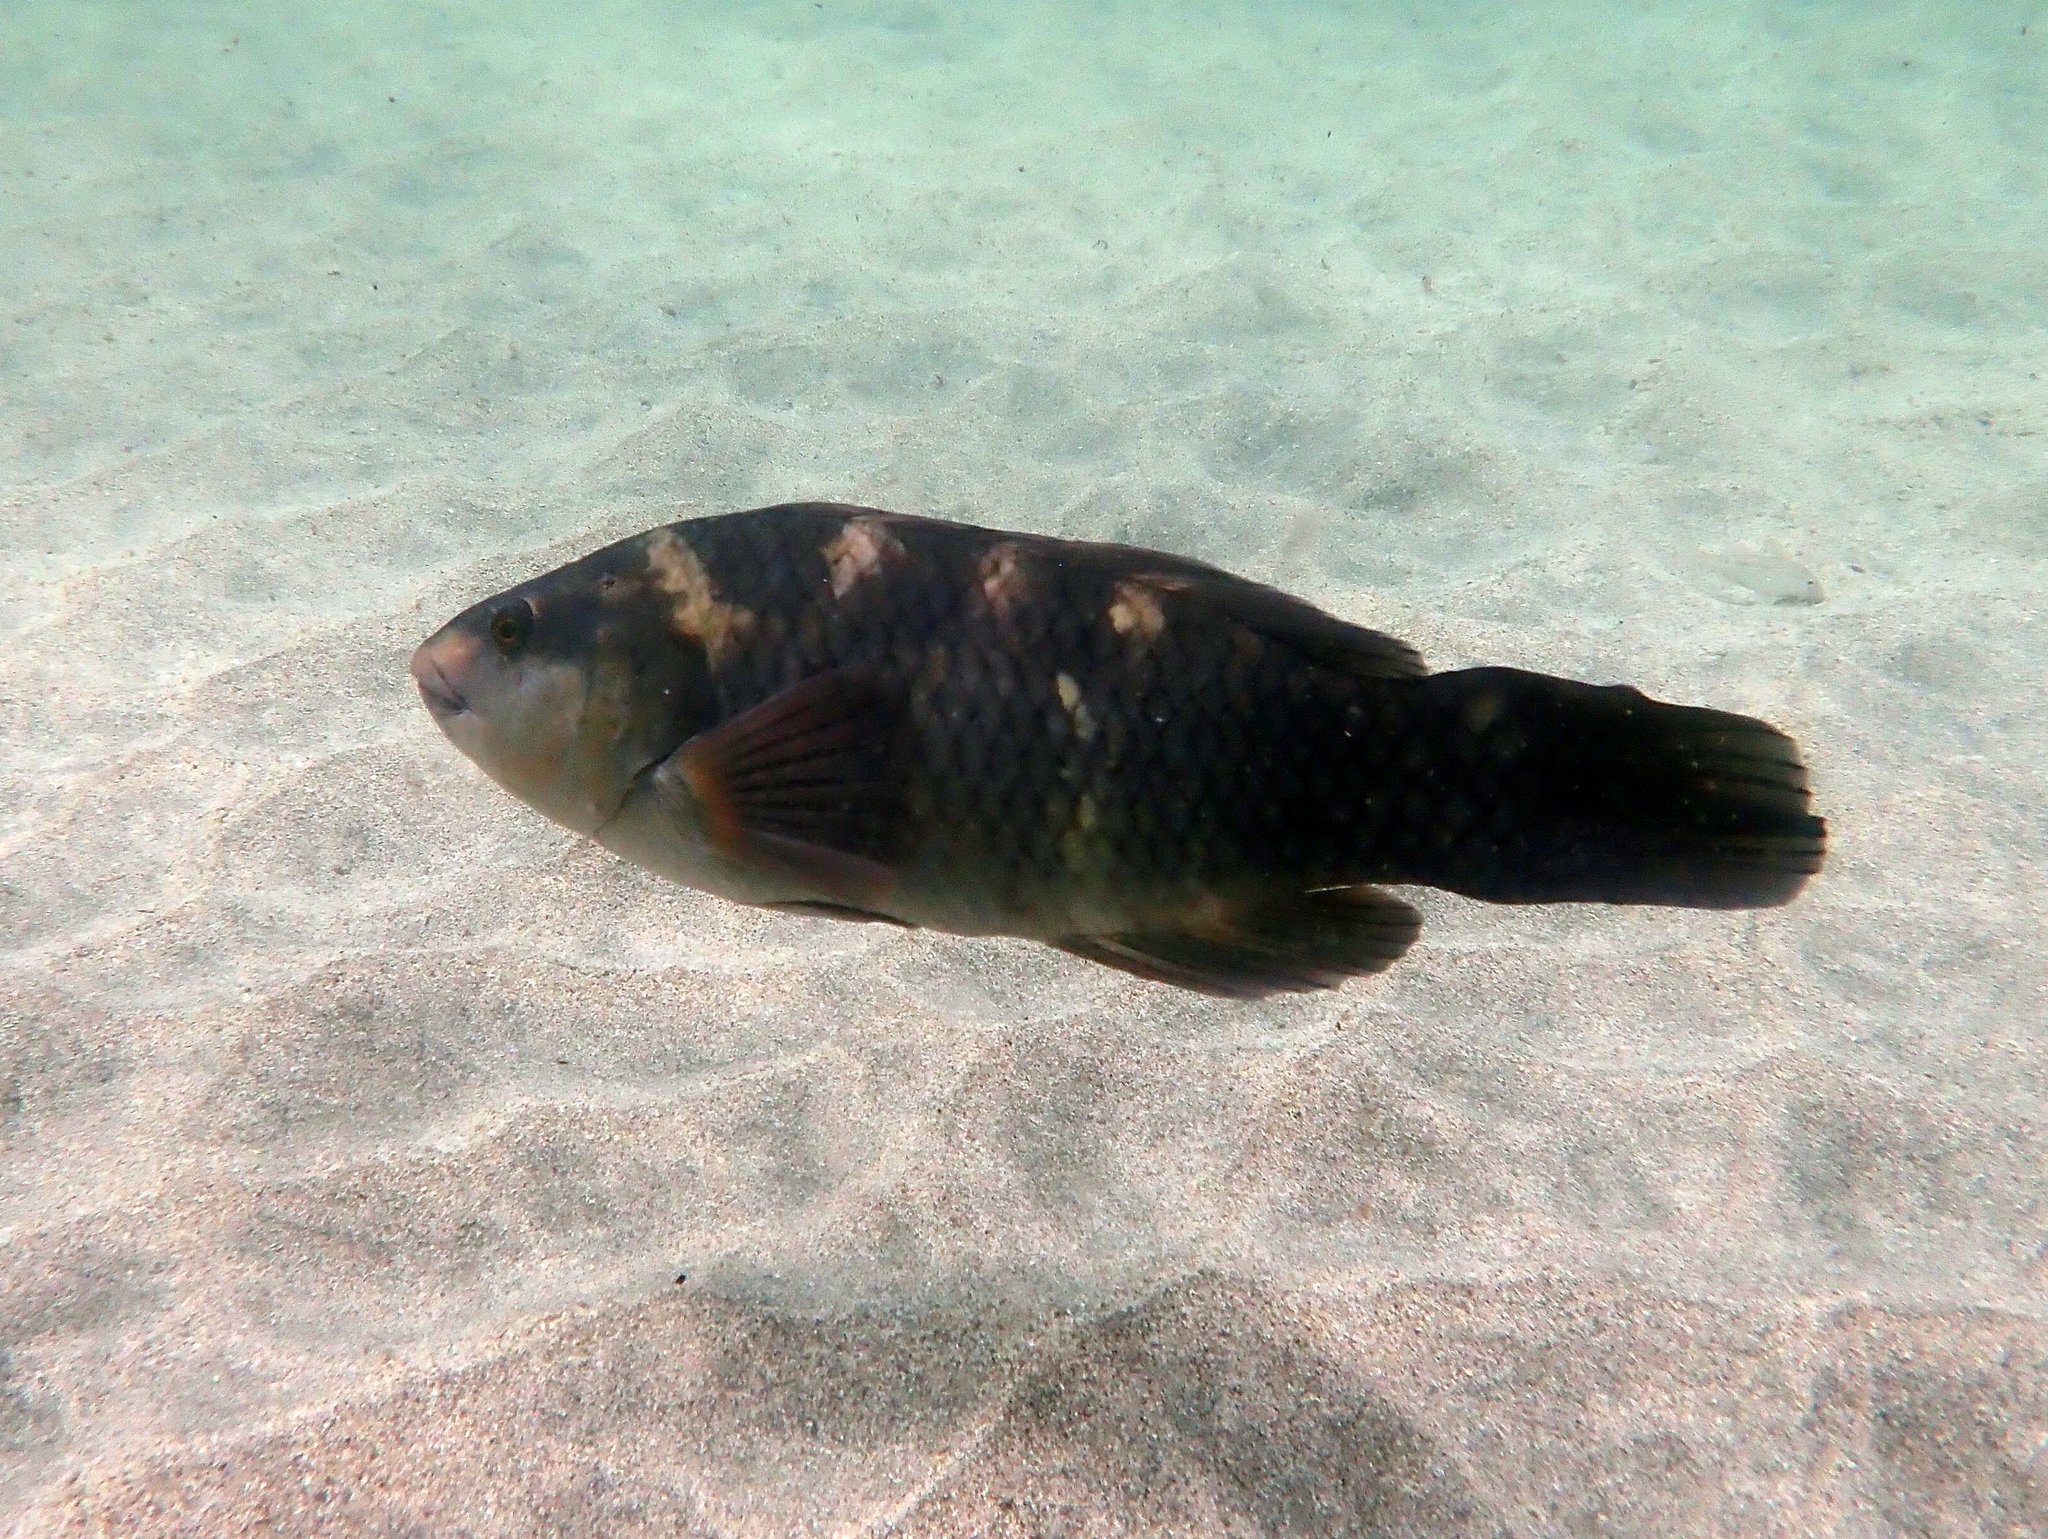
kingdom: Animalia
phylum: Chordata
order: Perciformes
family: Labridae
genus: Notolabrus
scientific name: Notolabrus fucicola
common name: Banded parrotfish
